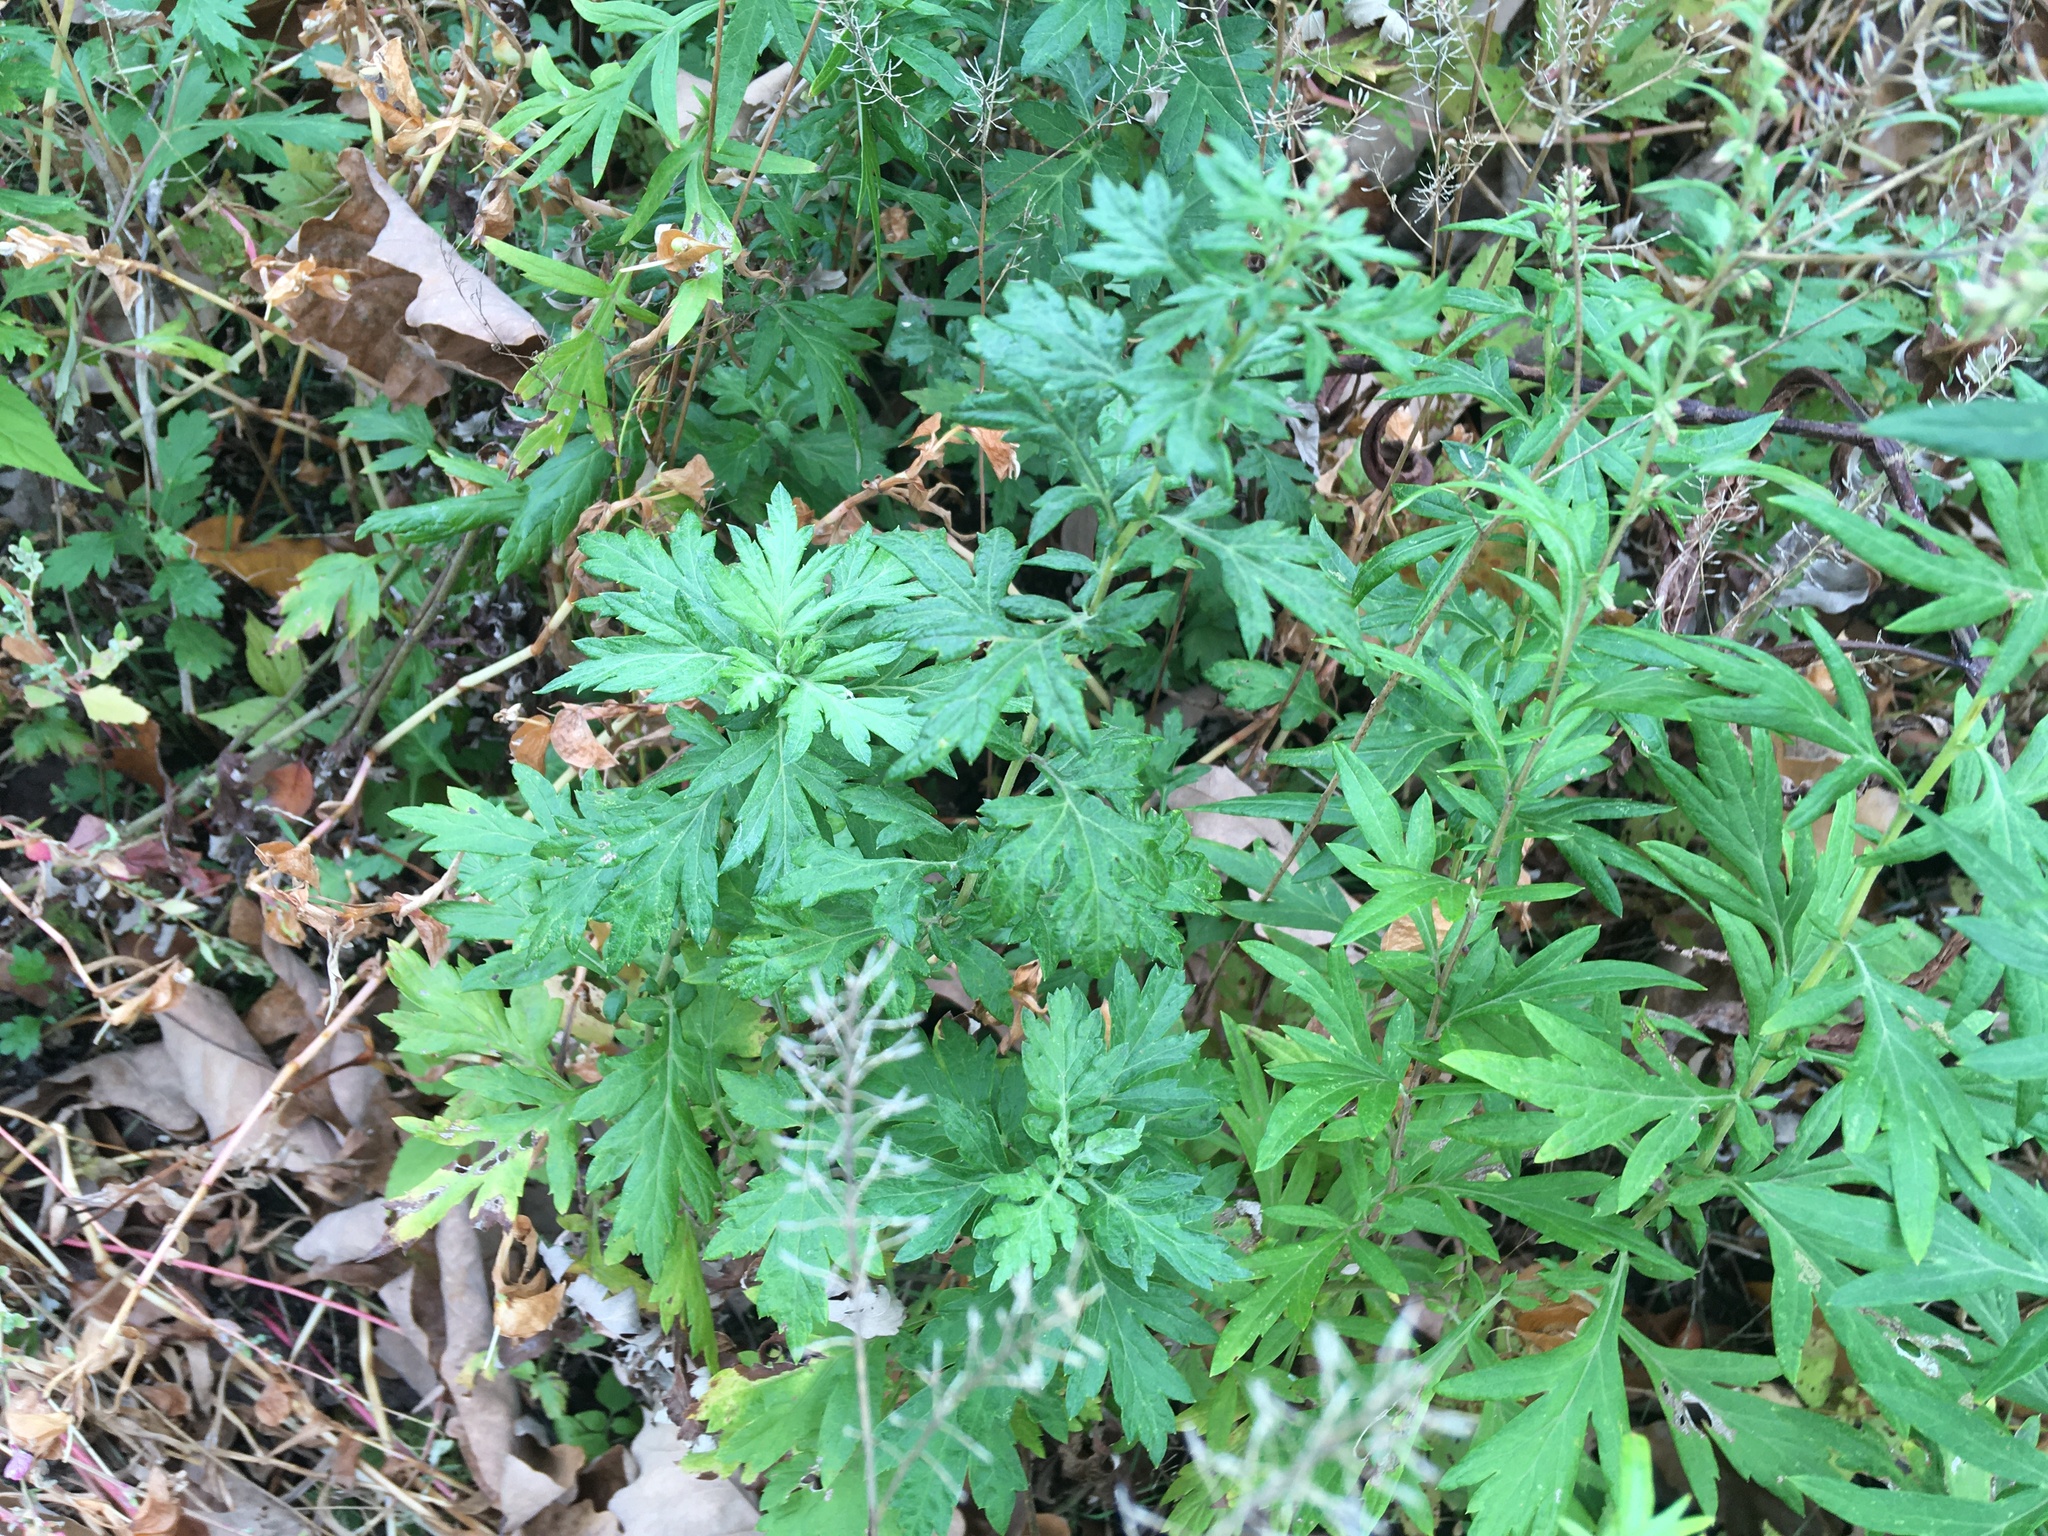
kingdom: Plantae
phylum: Tracheophyta
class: Magnoliopsida
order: Asterales
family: Asteraceae
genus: Artemisia
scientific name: Artemisia vulgaris
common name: Mugwort
